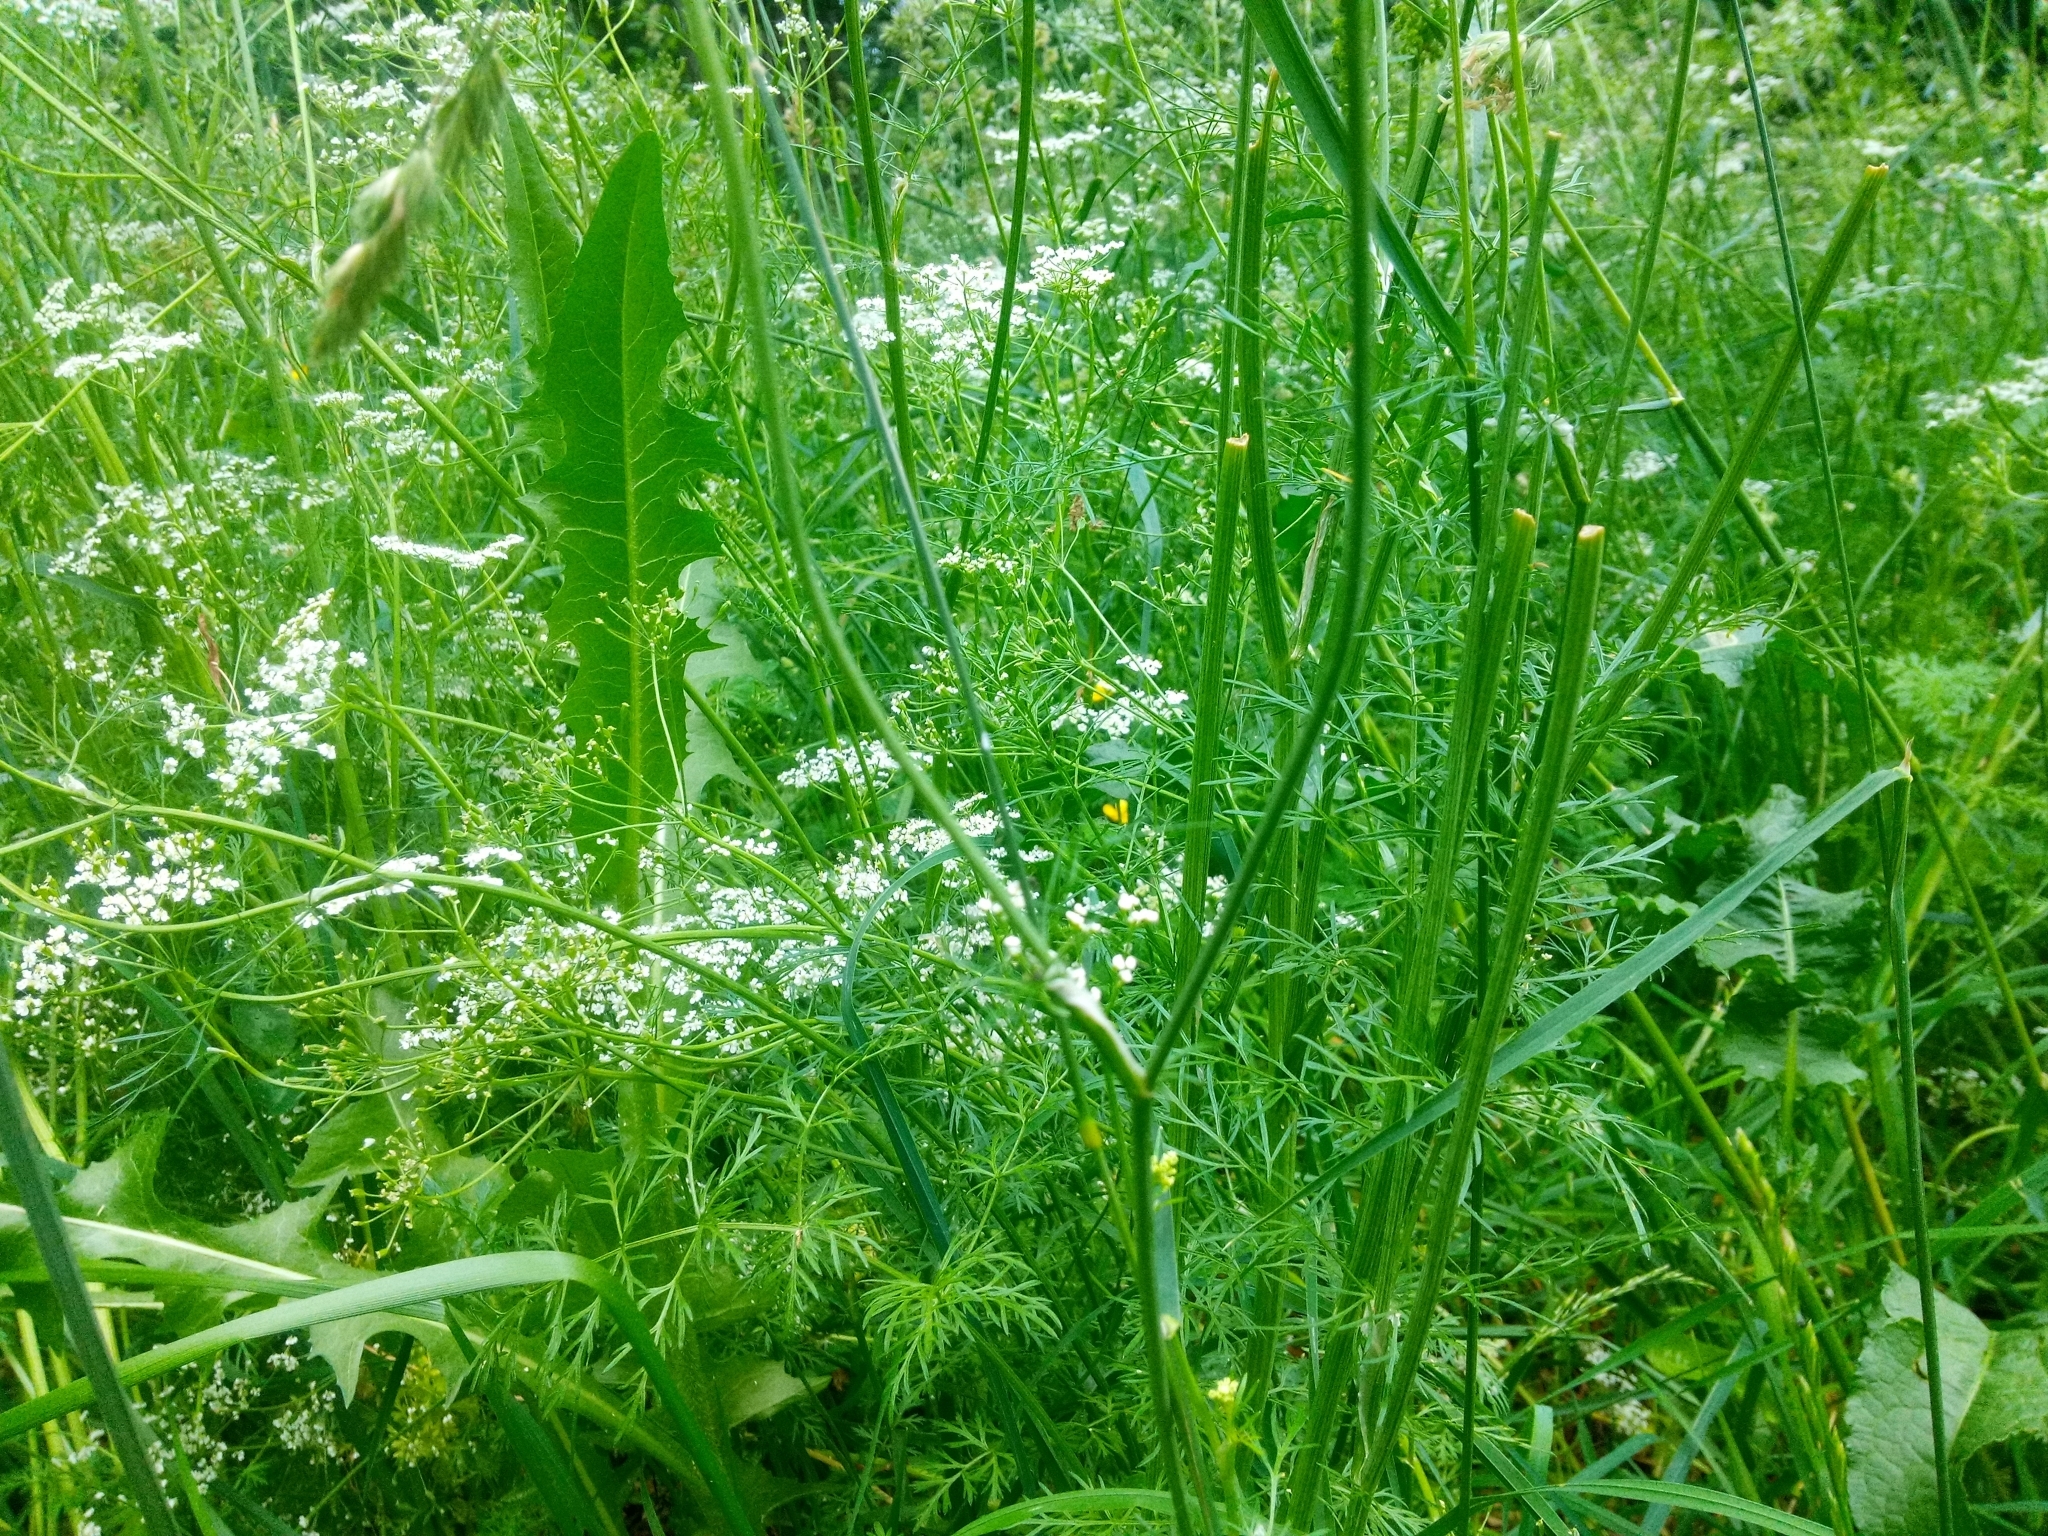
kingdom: Plantae
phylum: Tracheophyta
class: Magnoliopsida
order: Apiales
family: Apiaceae
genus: Carum
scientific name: Carum carvi
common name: Caraway
